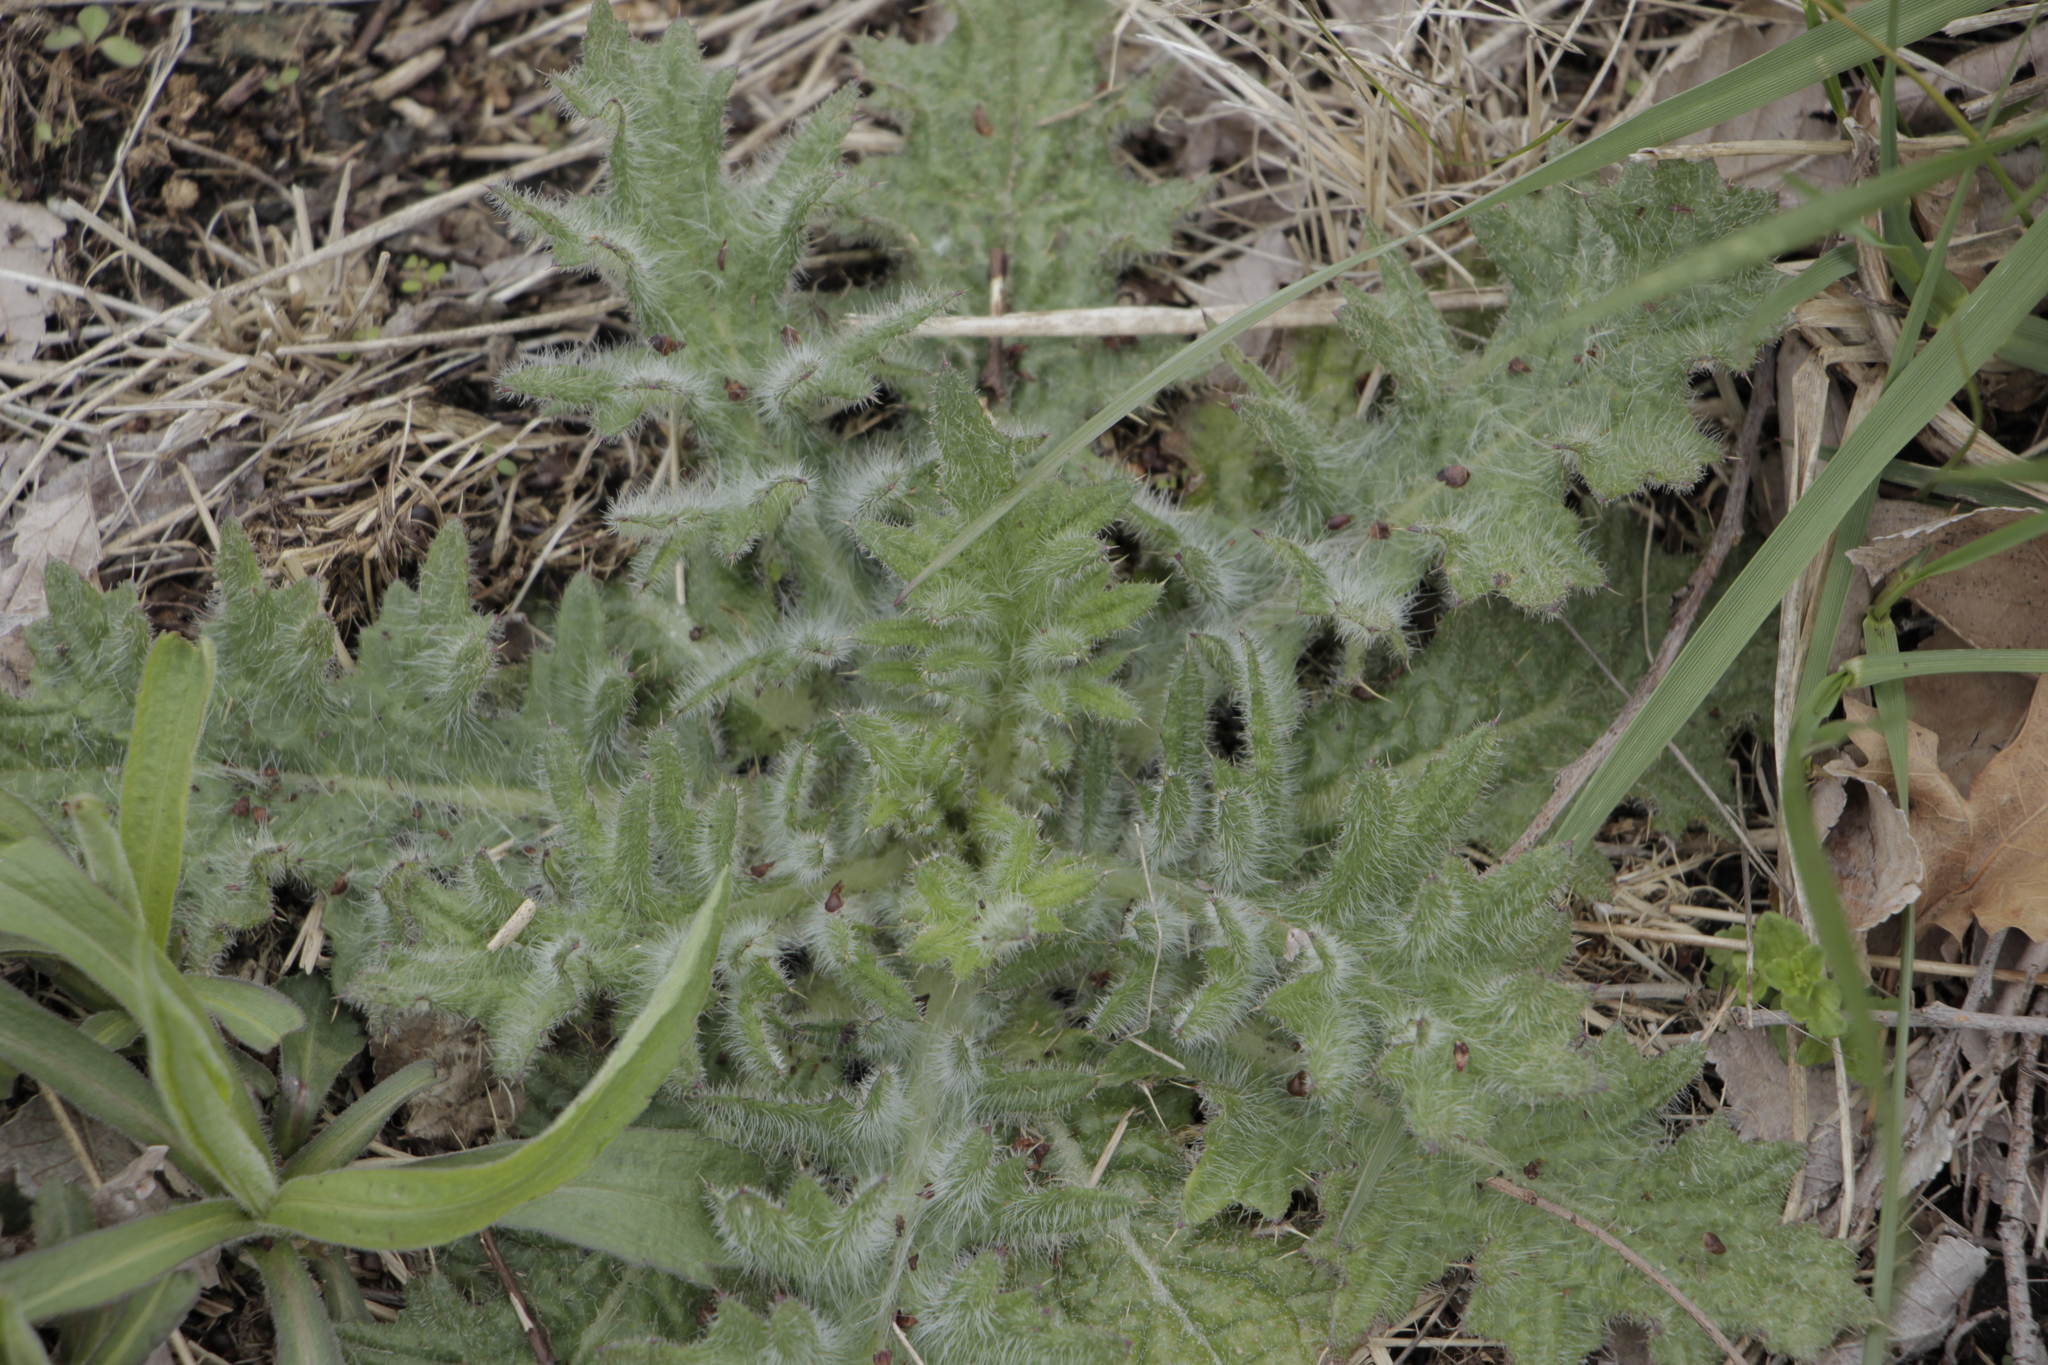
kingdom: Plantae
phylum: Tracheophyta
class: Magnoliopsida
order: Asterales
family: Asteraceae
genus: Cirsium
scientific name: Cirsium vulgare
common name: Bull thistle
